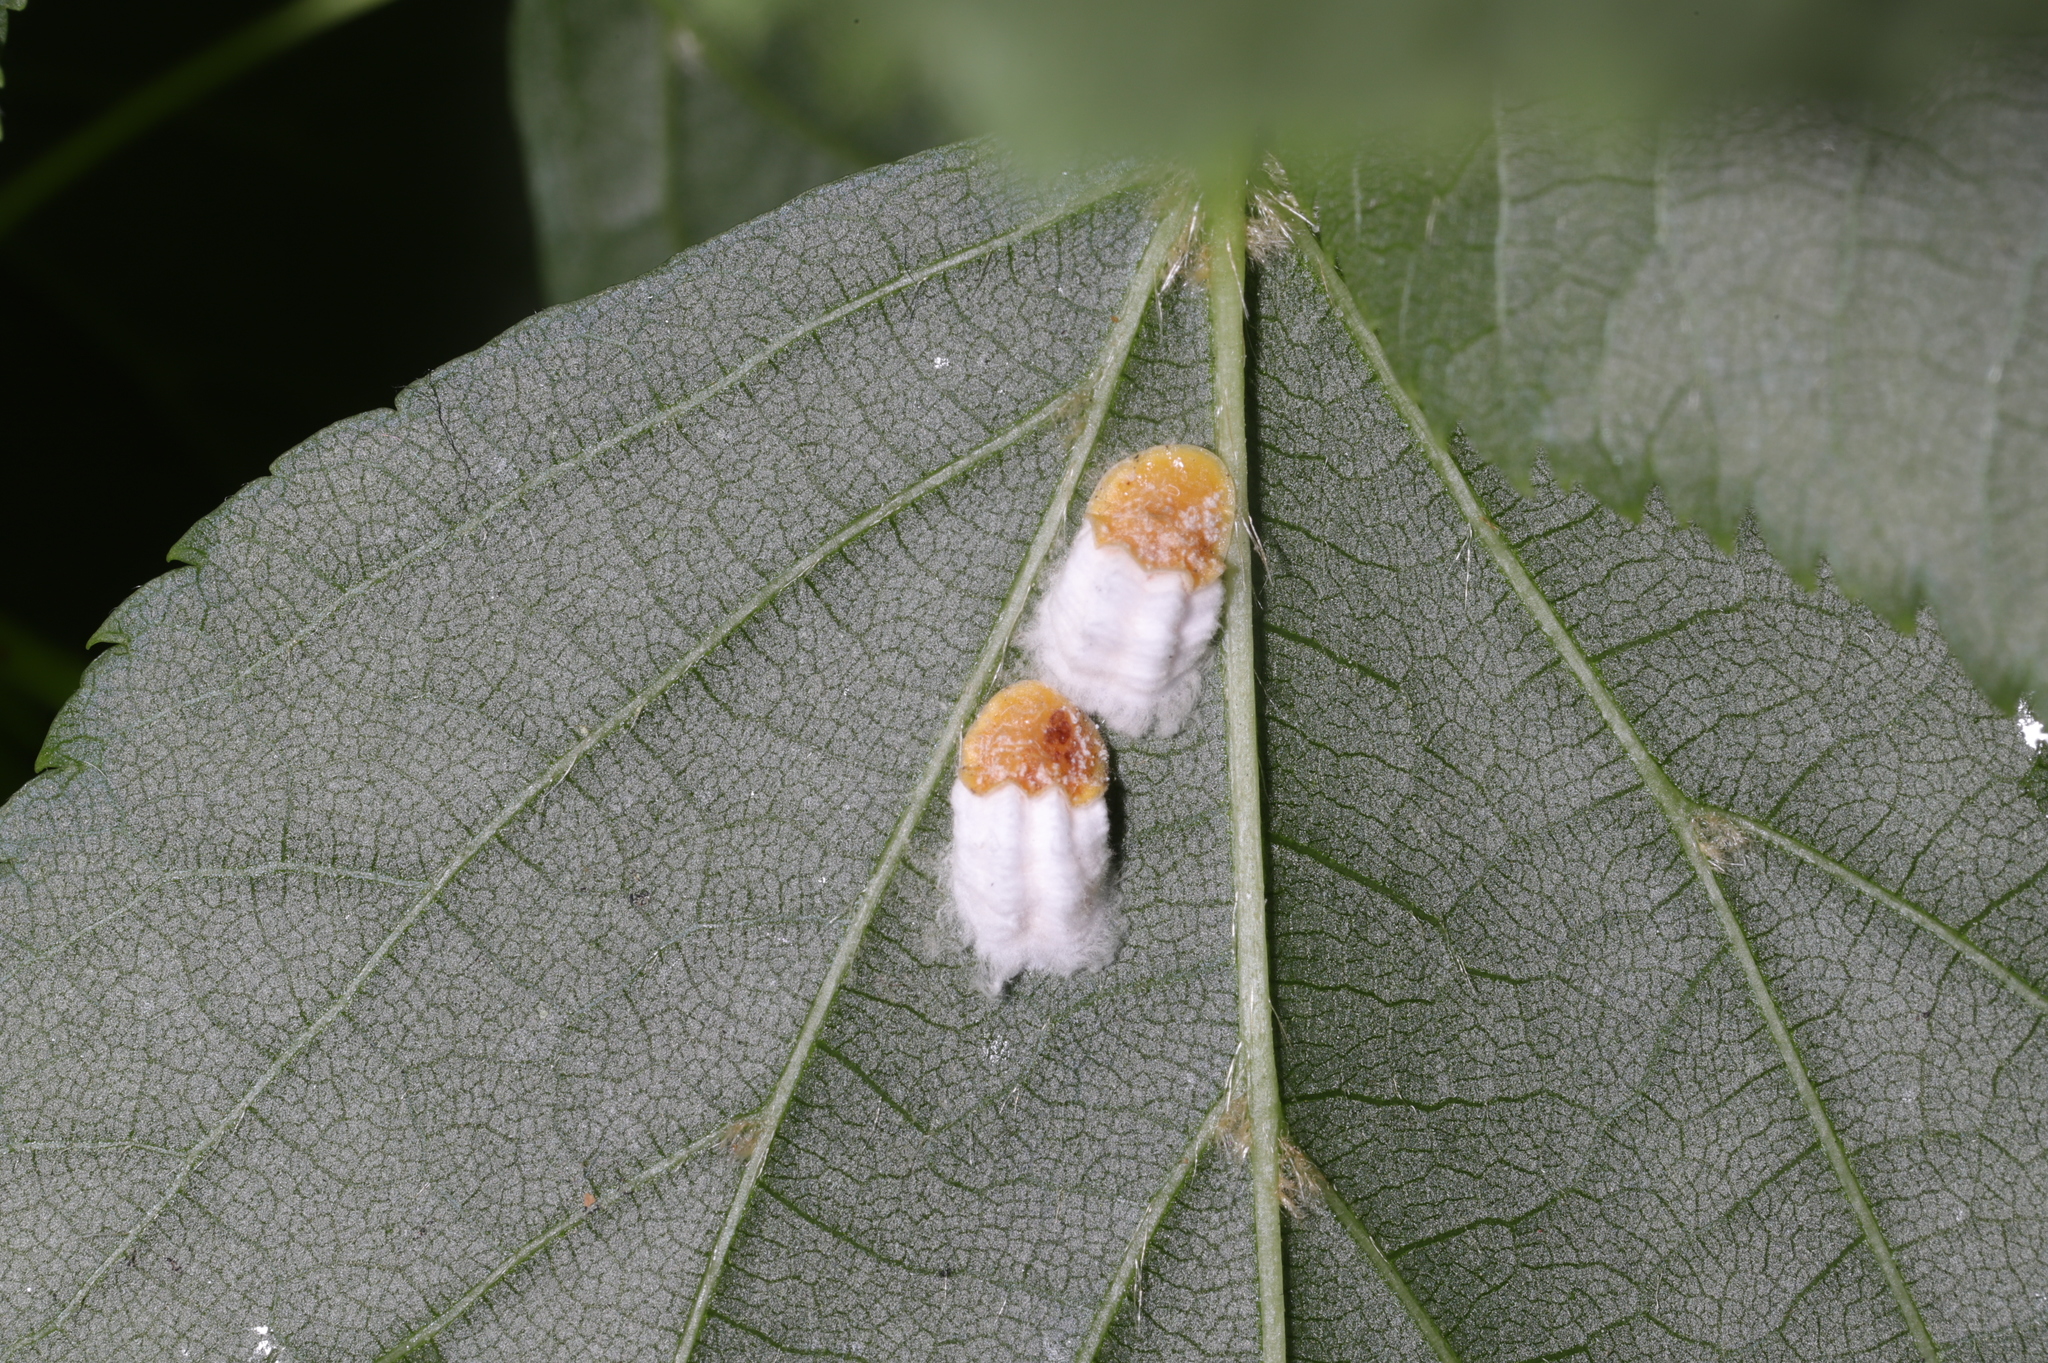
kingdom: Animalia
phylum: Arthropoda
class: Insecta
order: Hemiptera
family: Coccidae
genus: Pulvinaria
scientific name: Pulvinaria acericola
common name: Cottony maple leaf scale
